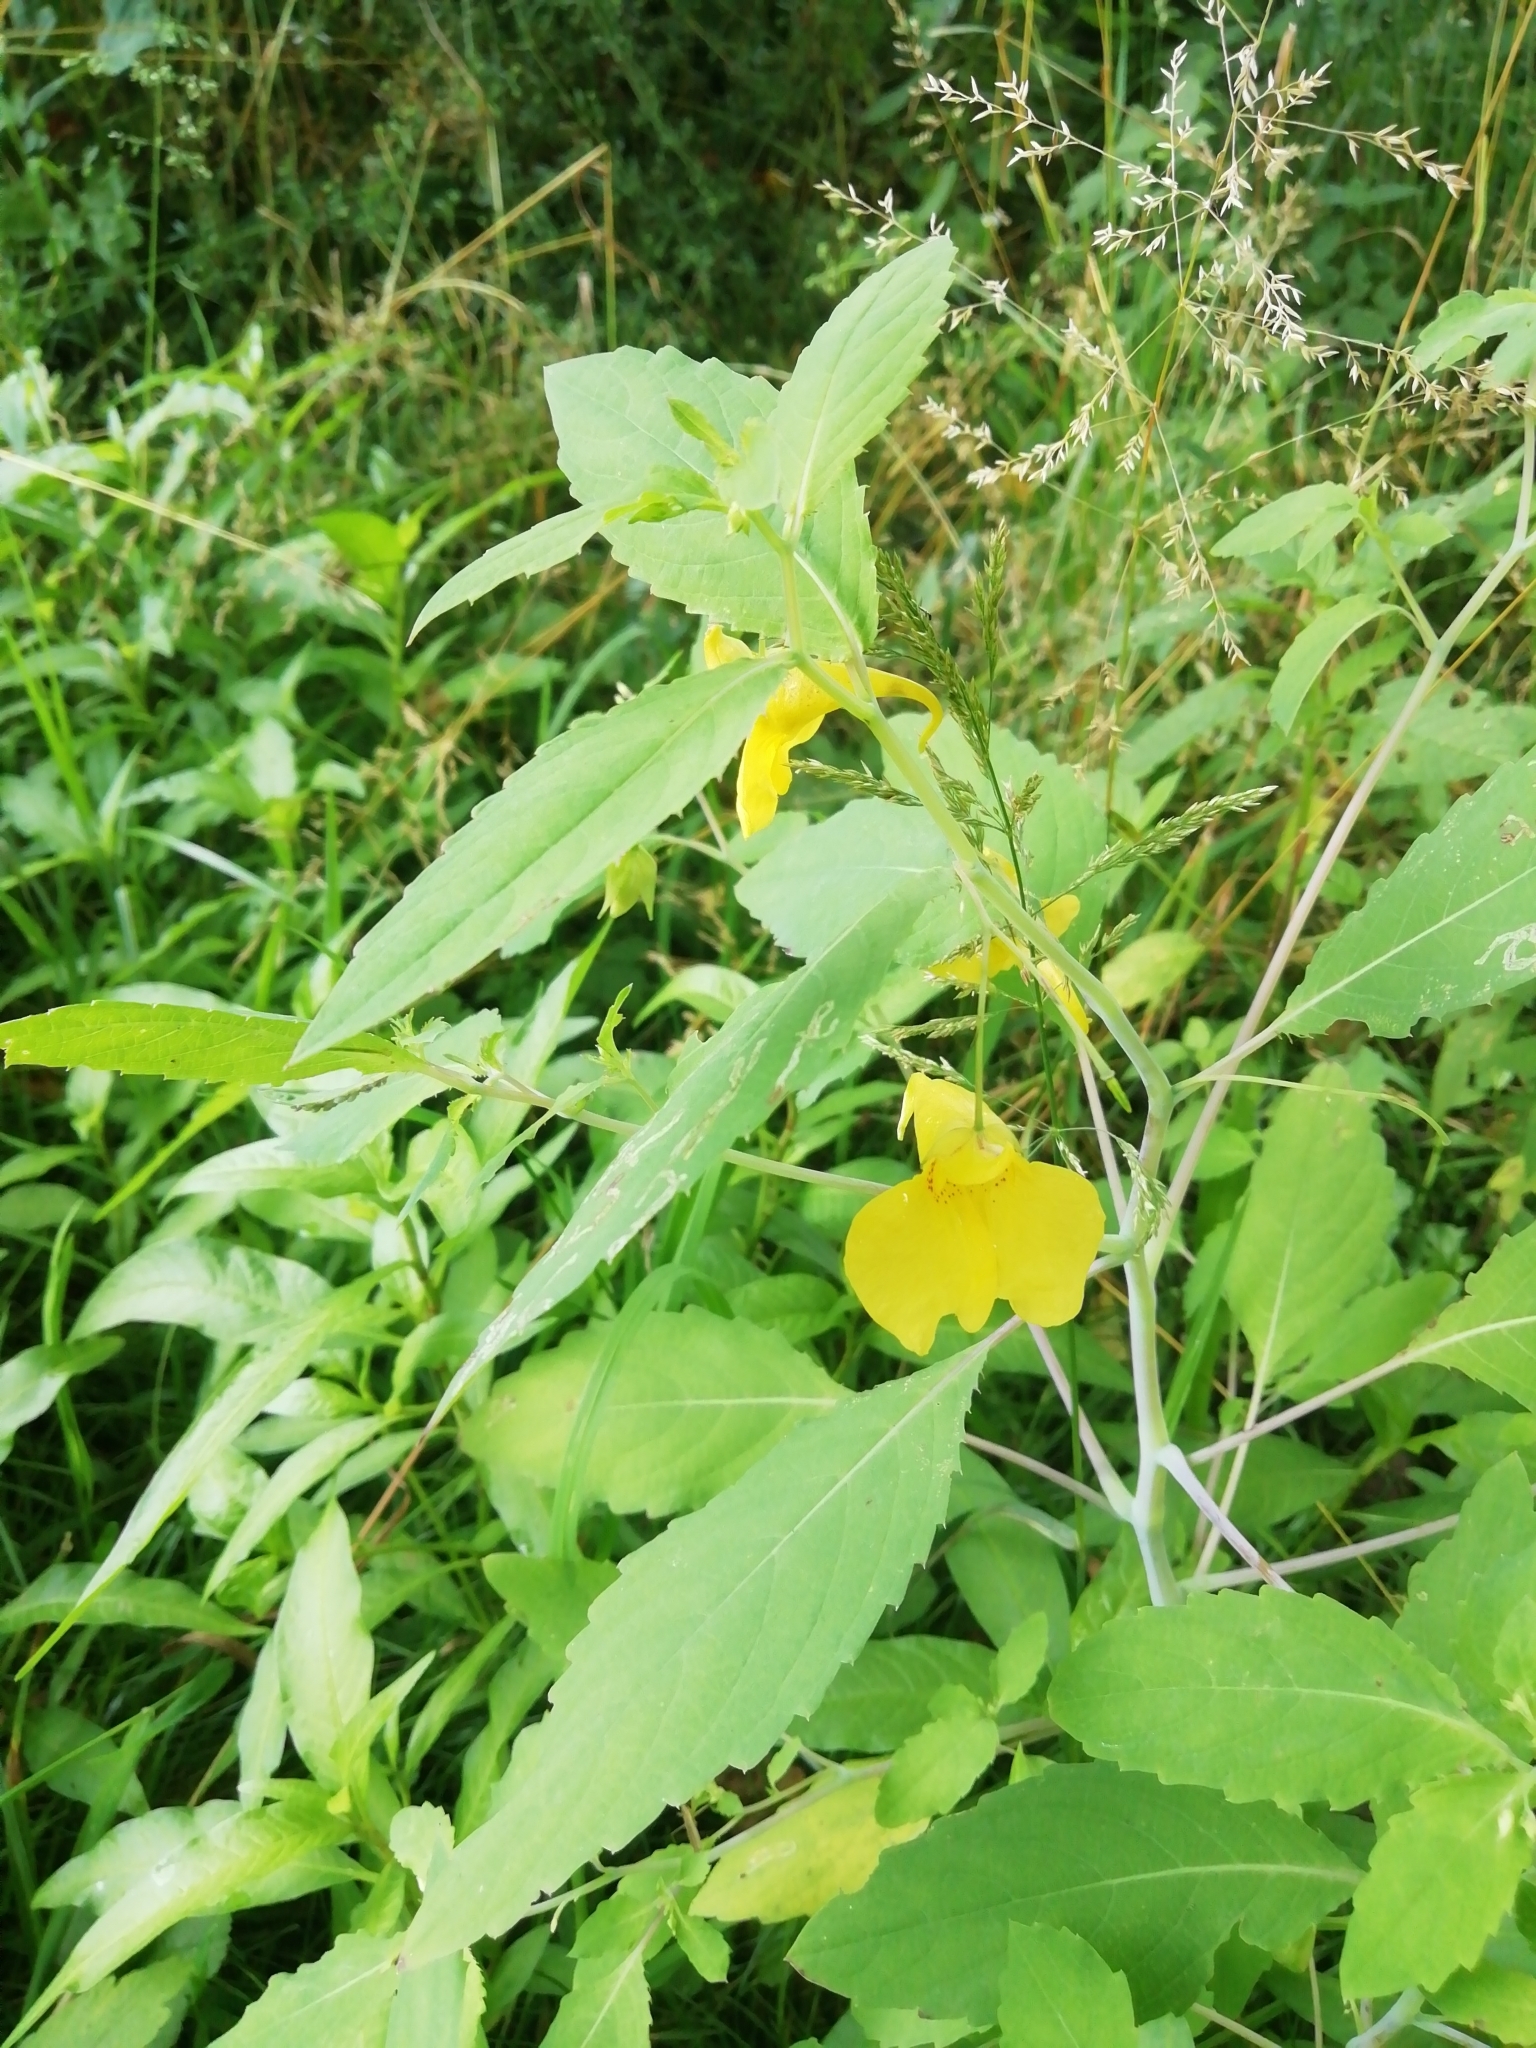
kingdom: Plantae
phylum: Tracheophyta
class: Magnoliopsida
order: Ericales
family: Balsaminaceae
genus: Impatiens
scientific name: Impatiens noli-tangere
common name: Touch-me-not balsam
